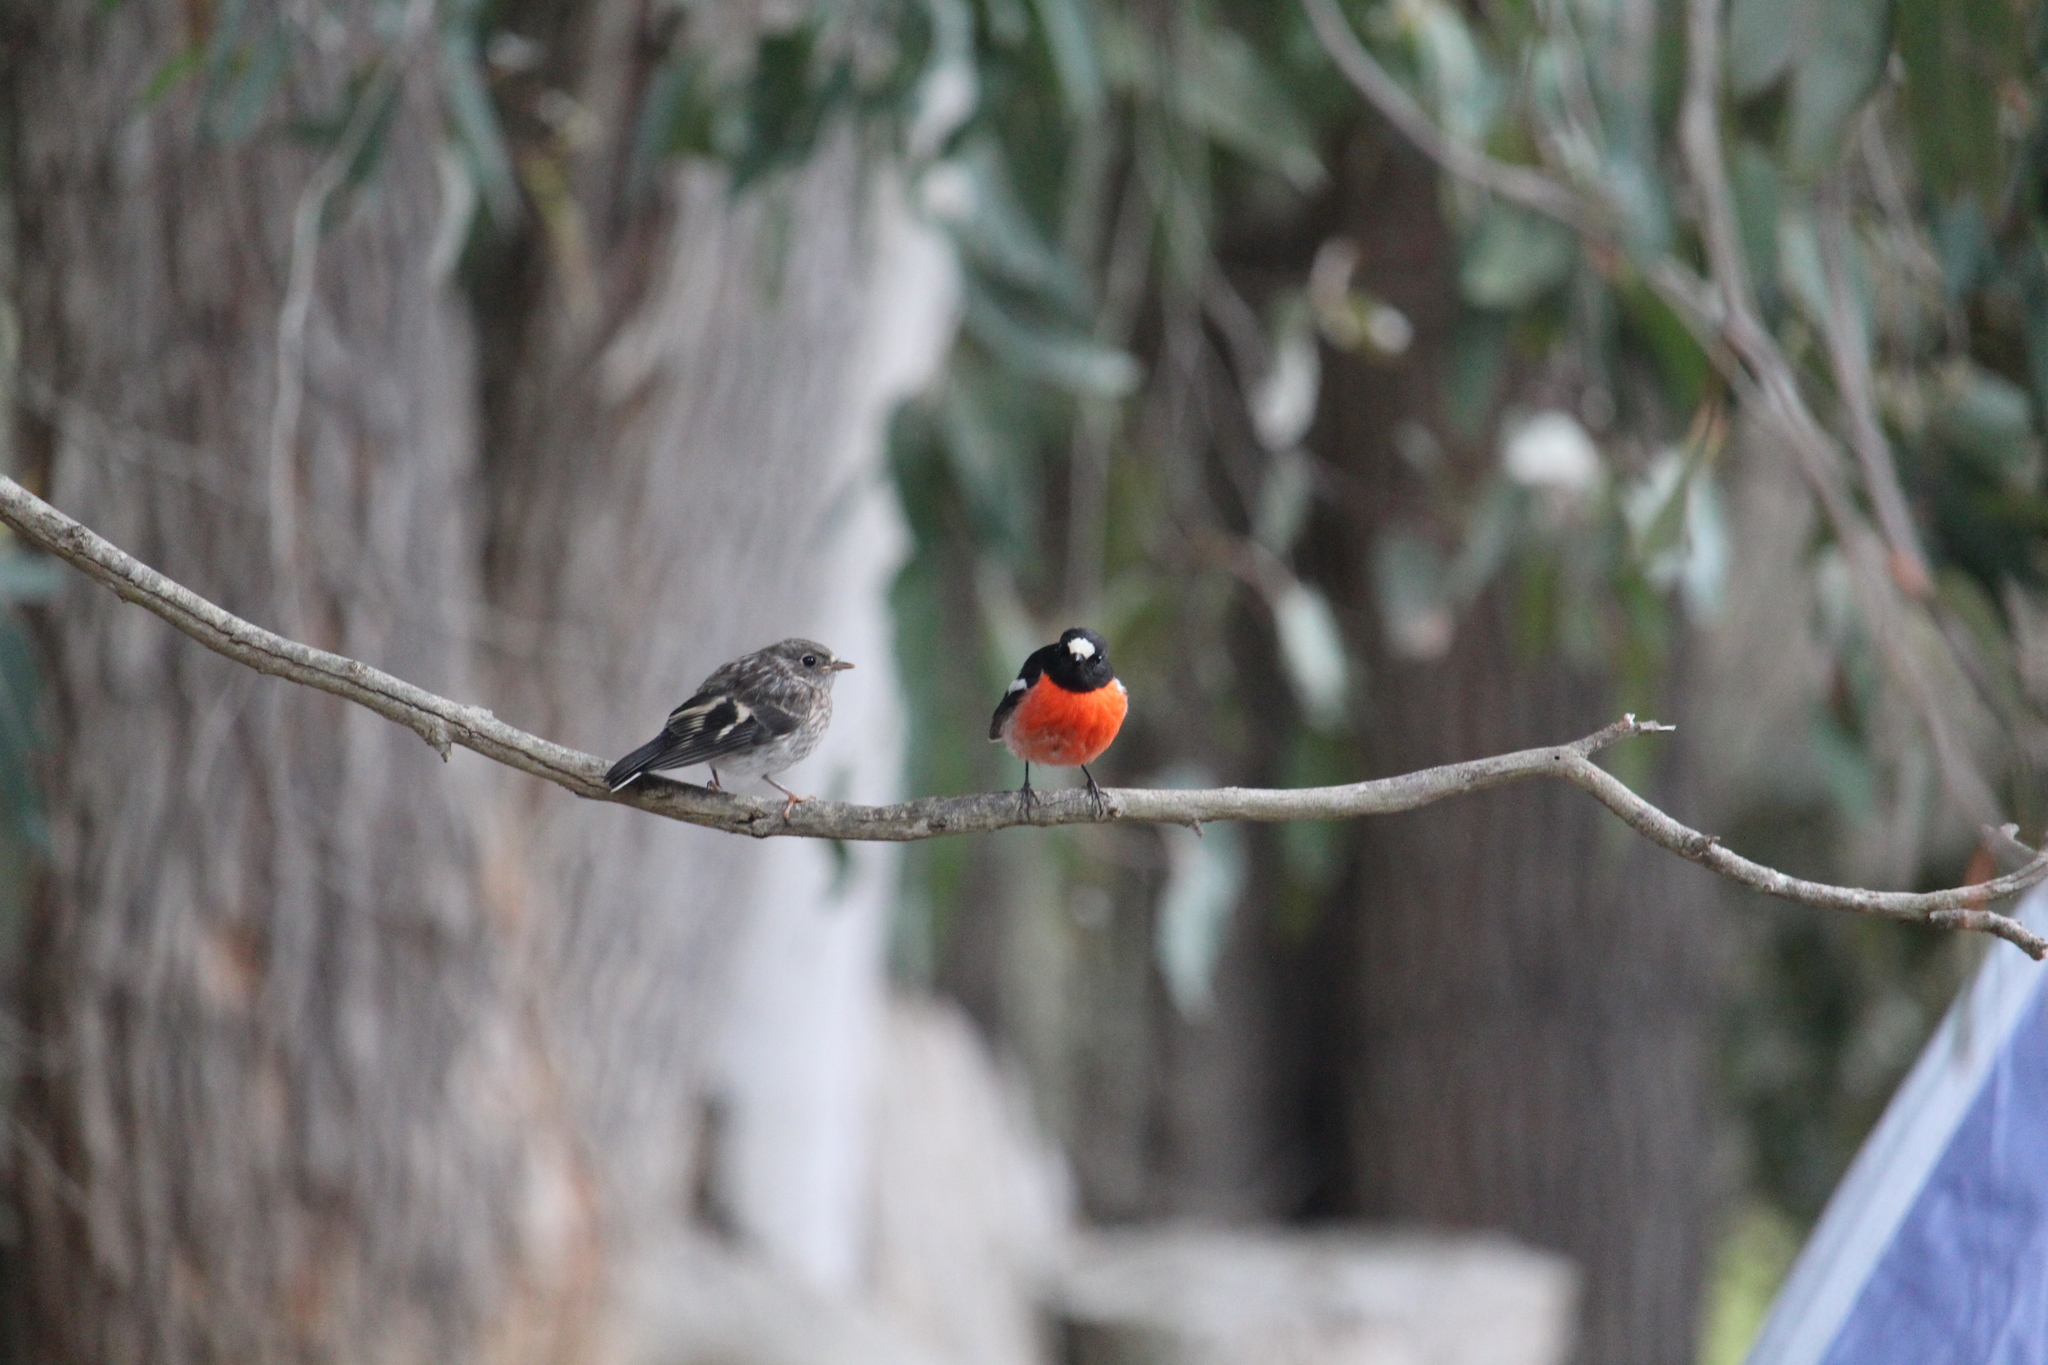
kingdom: Animalia
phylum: Chordata
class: Aves
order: Passeriformes
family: Petroicidae
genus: Petroica
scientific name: Petroica boodang
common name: Scarlet robin
